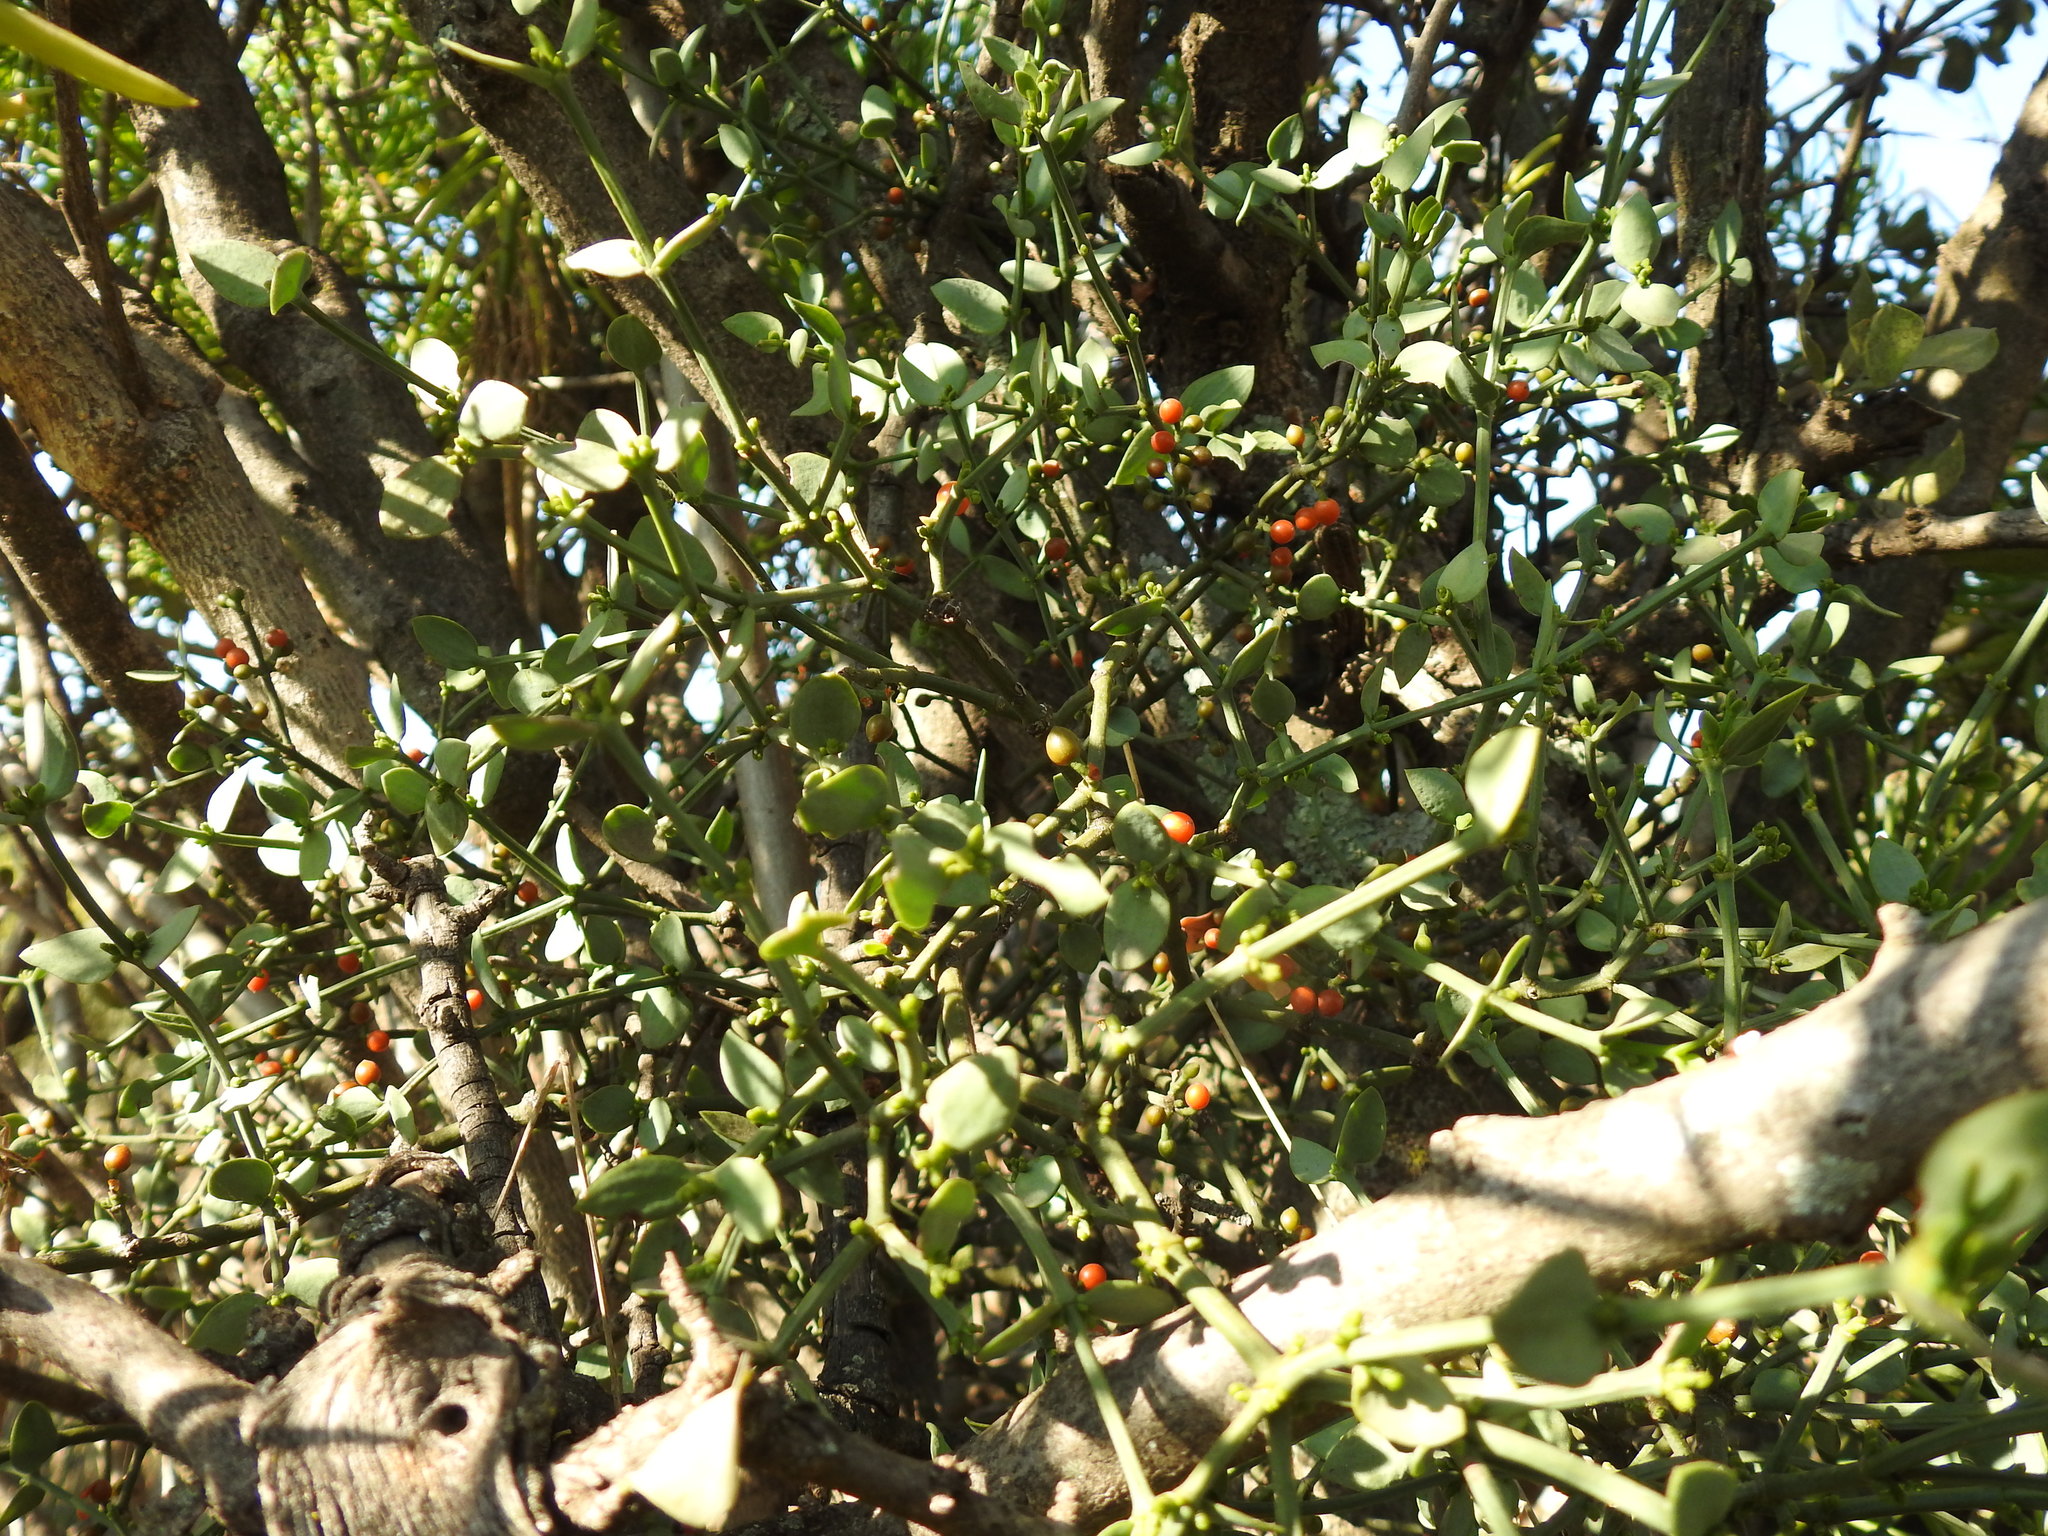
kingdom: Plantae
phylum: Tracheophyta
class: Magnoliopsida
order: Santalales
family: Viscaceae
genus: Viscum
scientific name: Viscum rotundifolium
